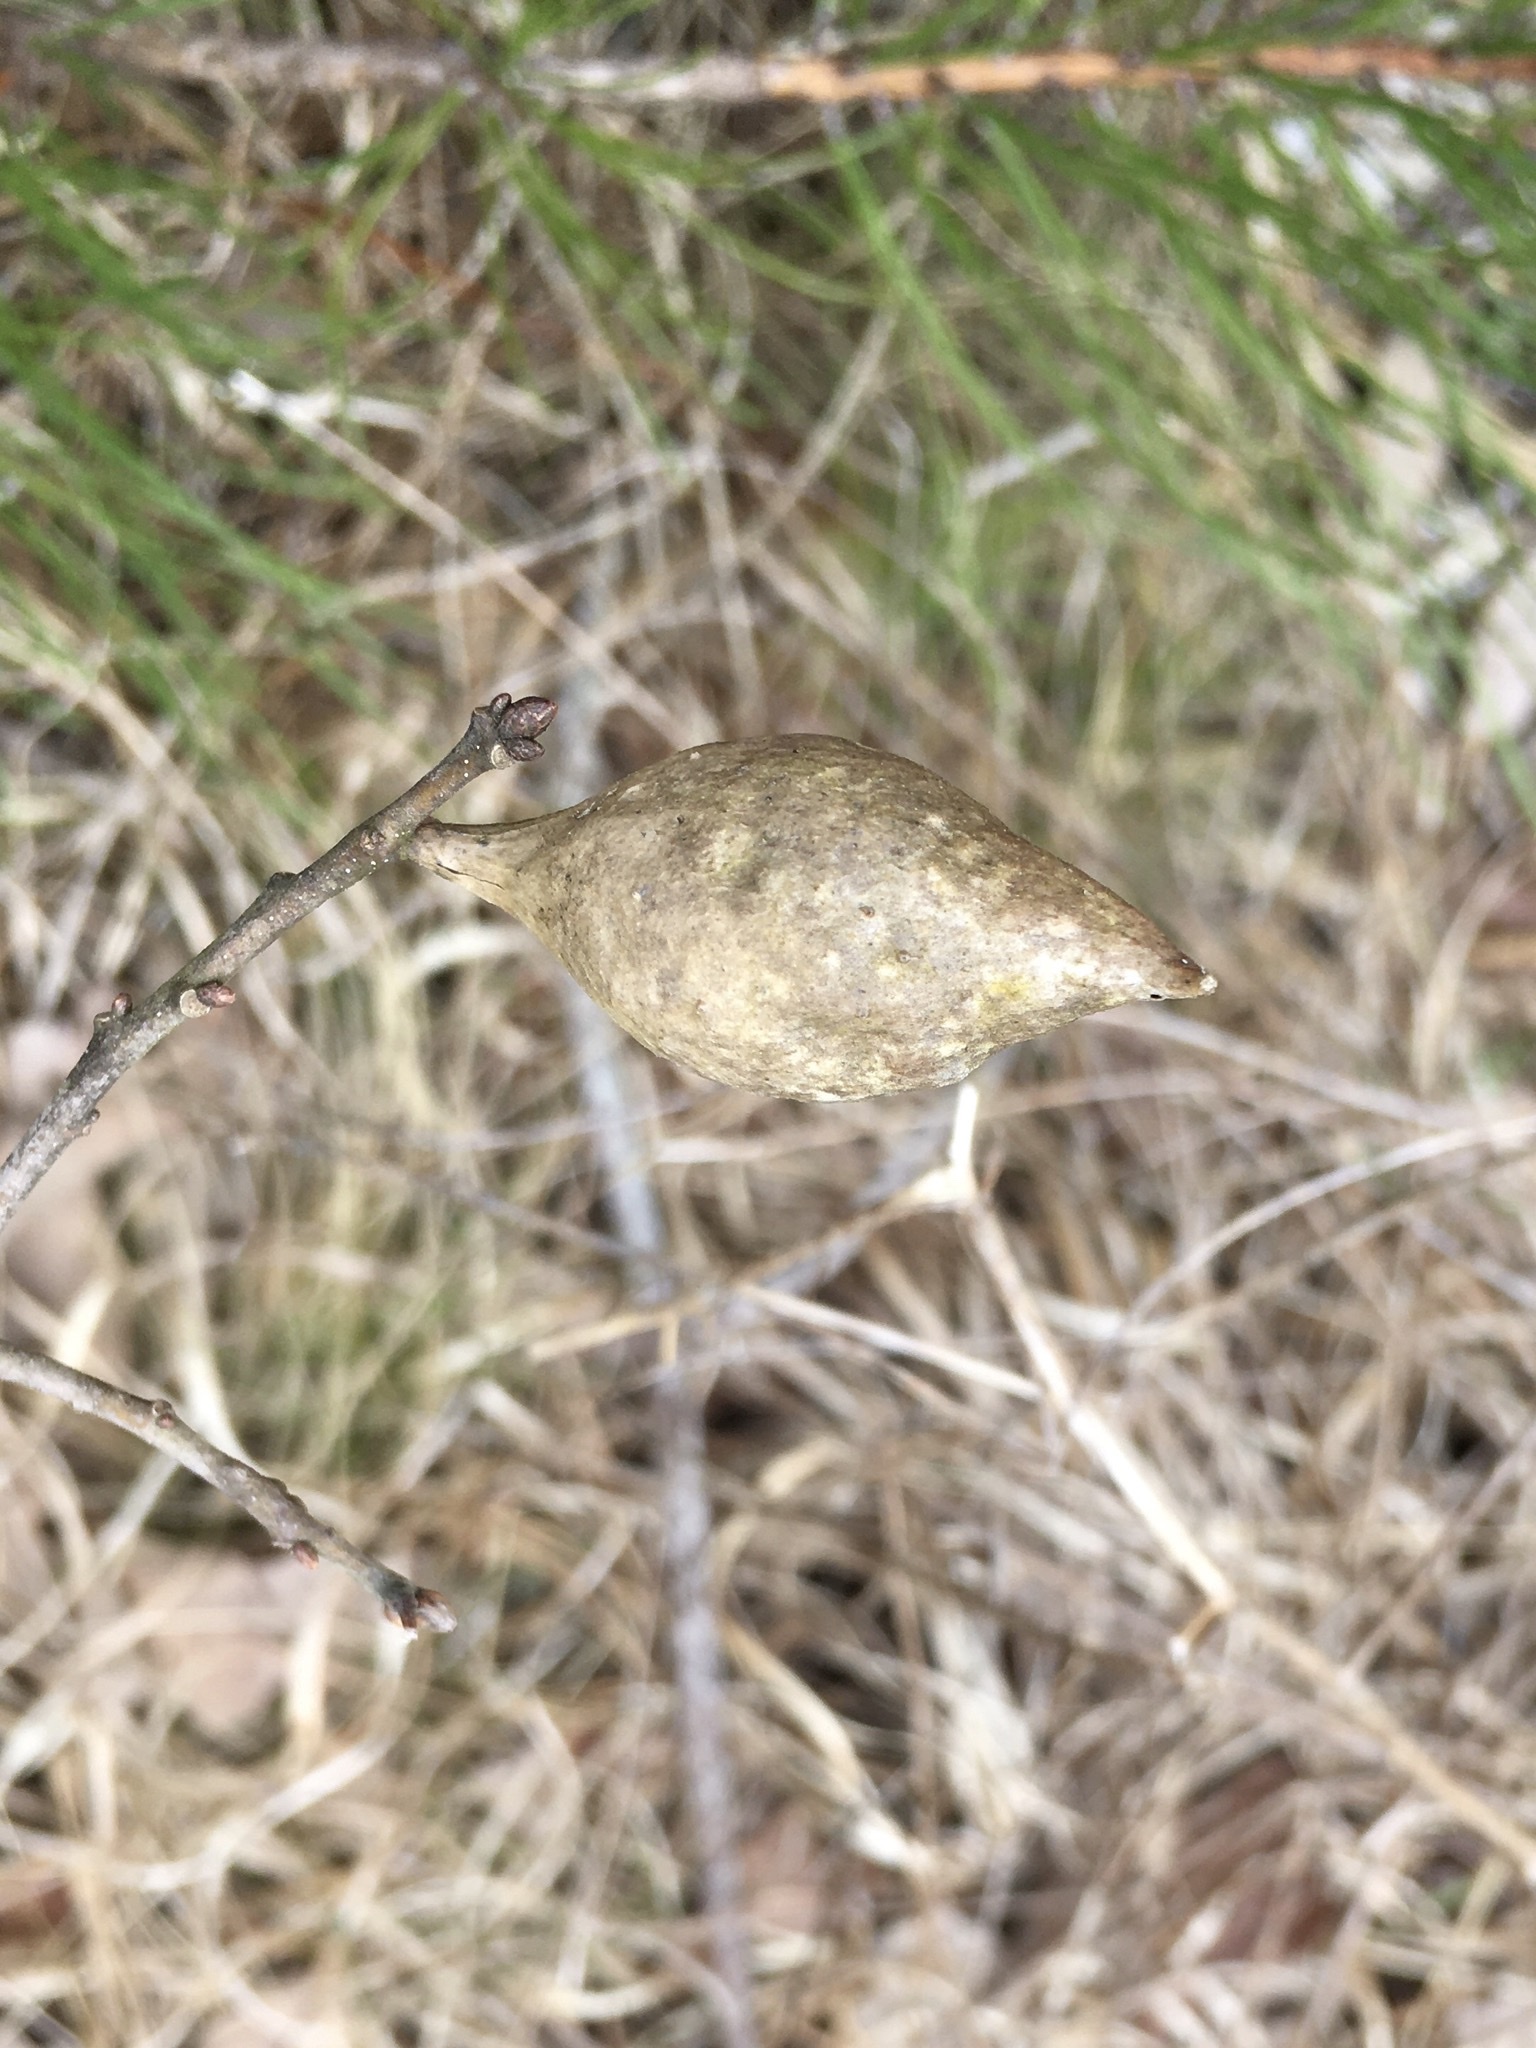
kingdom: Animalia
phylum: Arthropoda
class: Insecta
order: Hymenoptera
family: Cynipidae
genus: Amphibolips
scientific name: Amphibolips
